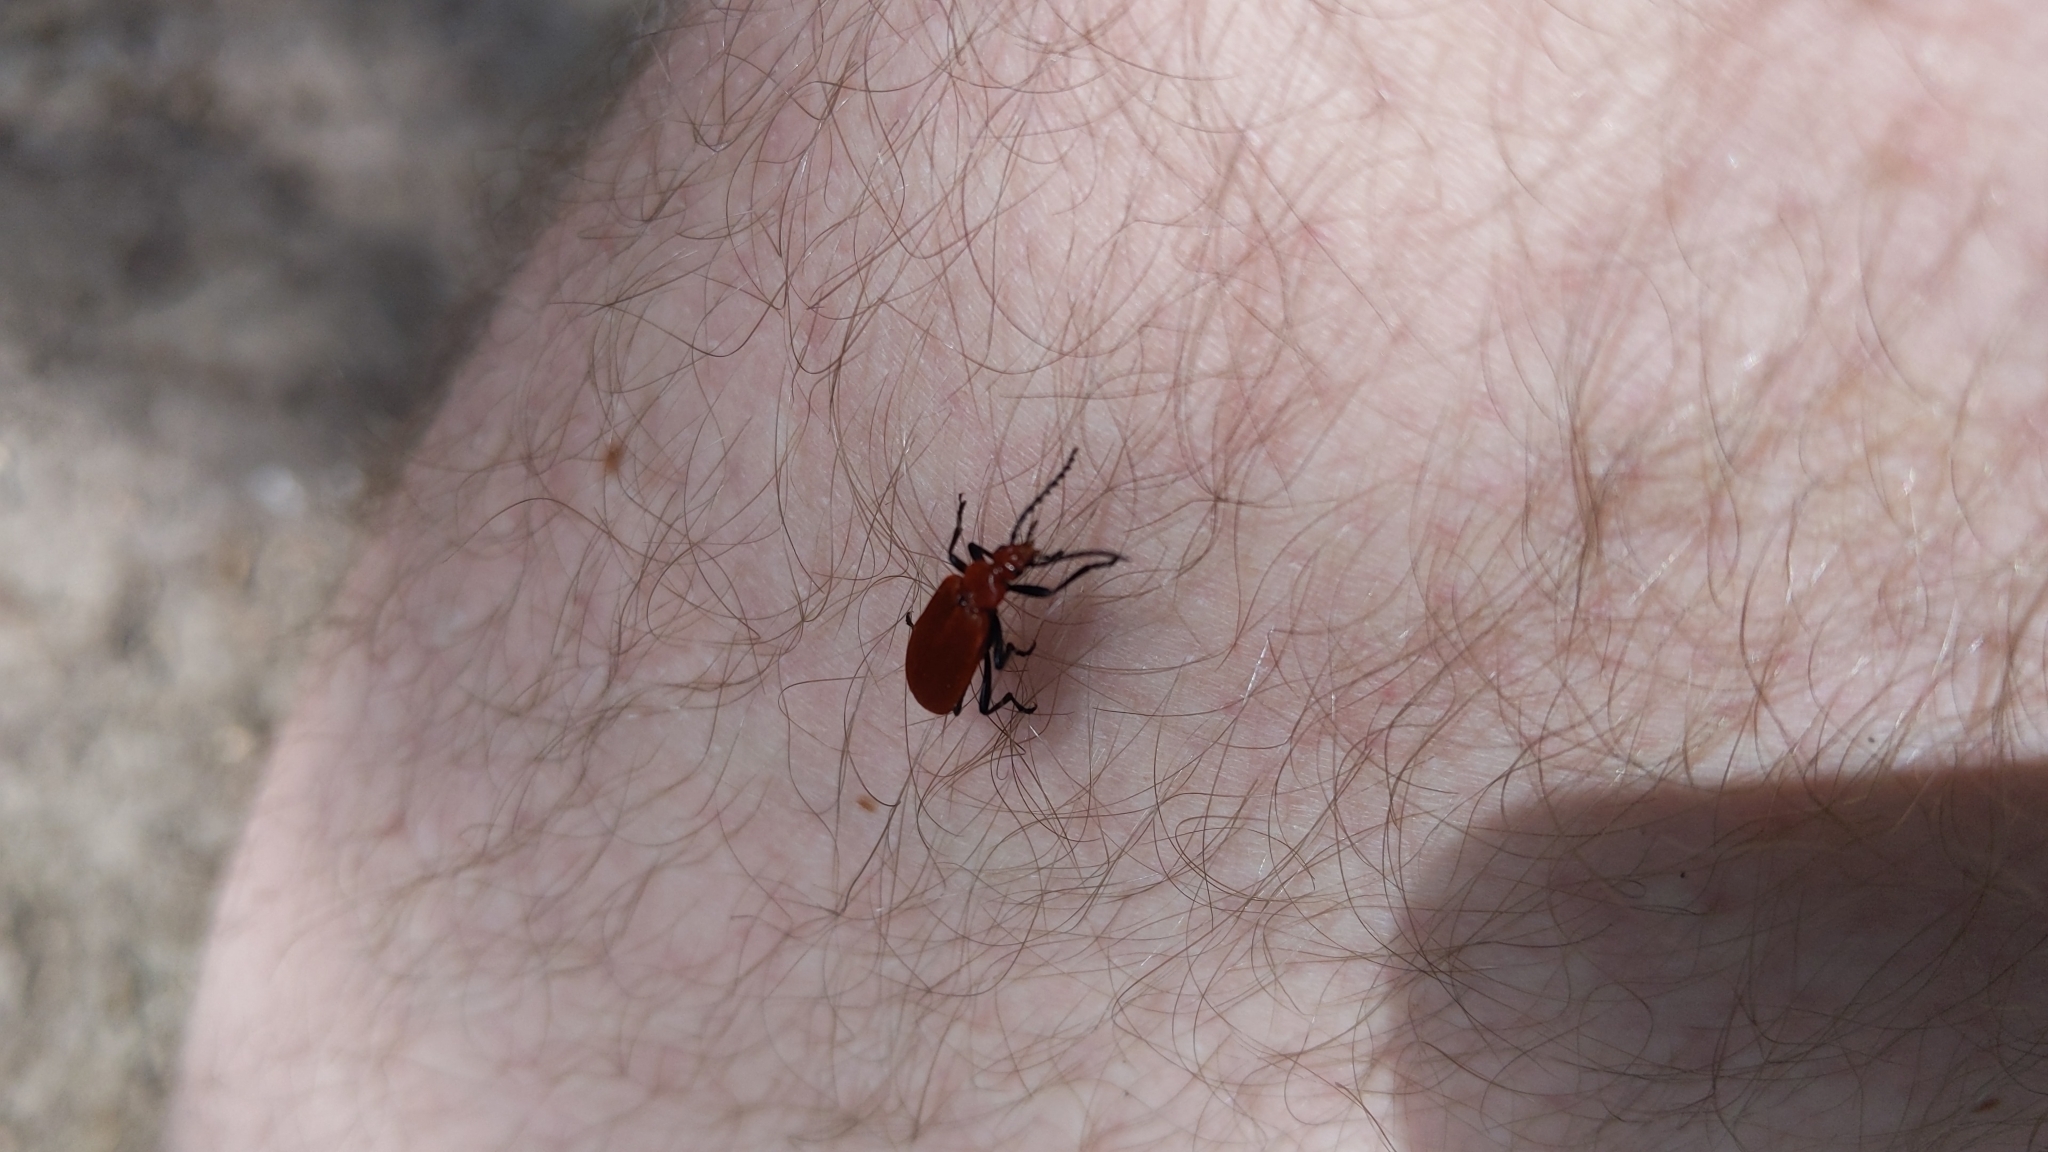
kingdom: Animalia
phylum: Arthropoda
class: Insecta
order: Coleoptera
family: Pyrochroidae
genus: Pyrochroa
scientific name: Pyrochroa serraticornis
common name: Red-headed cardinal beetle
